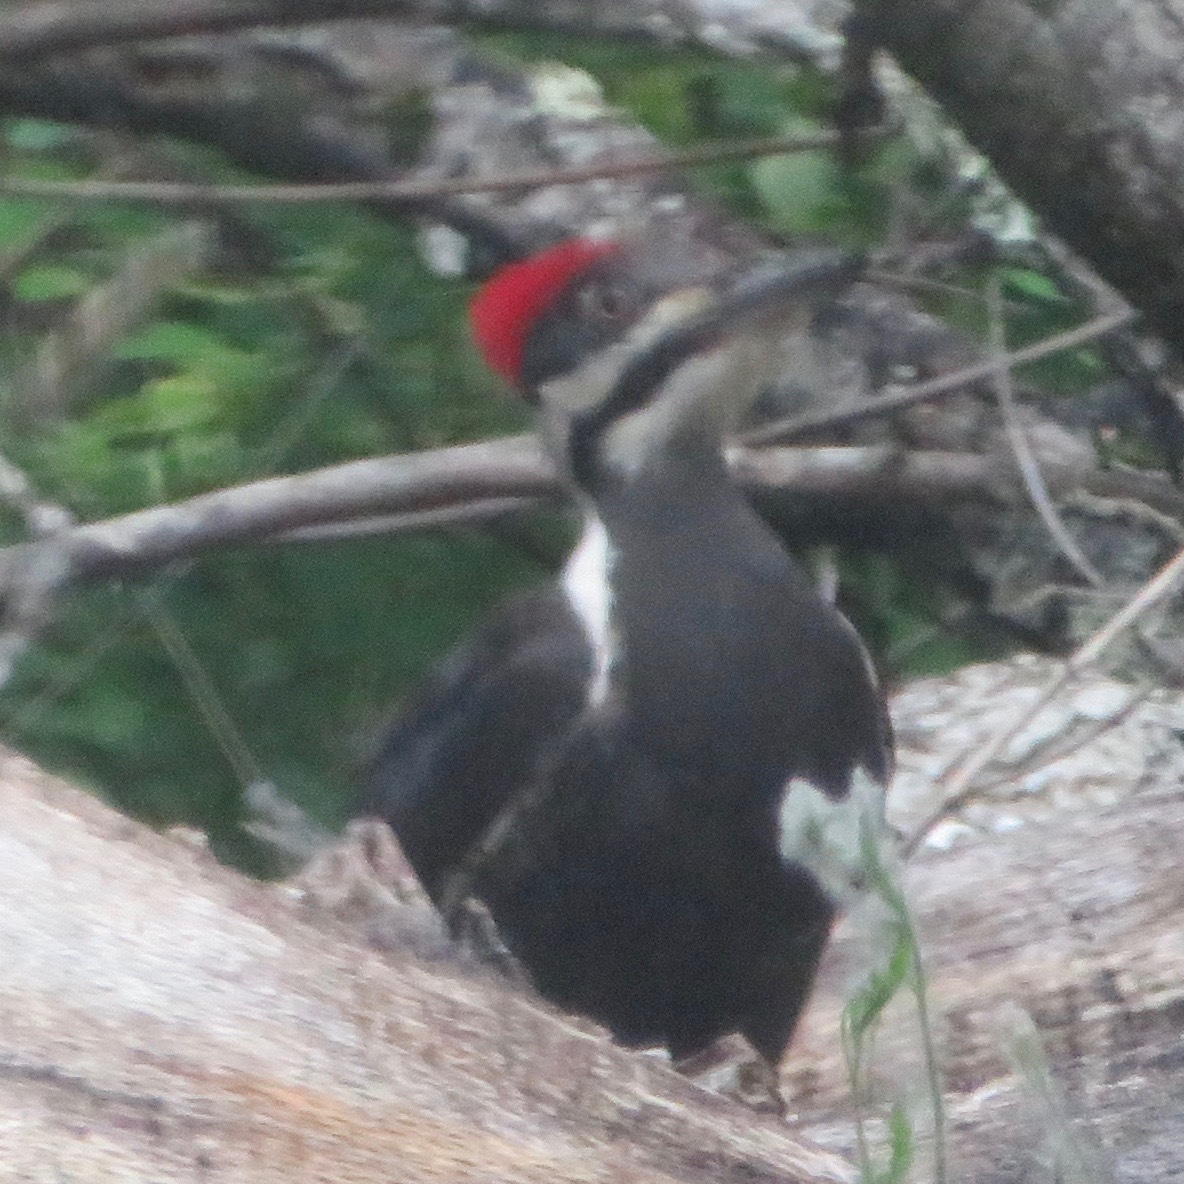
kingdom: Animalia
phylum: Chordata
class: Aves
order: Piciformes
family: Picidae
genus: Dryocopus
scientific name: Dryocopus pileatus
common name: Pileated woodpecker
